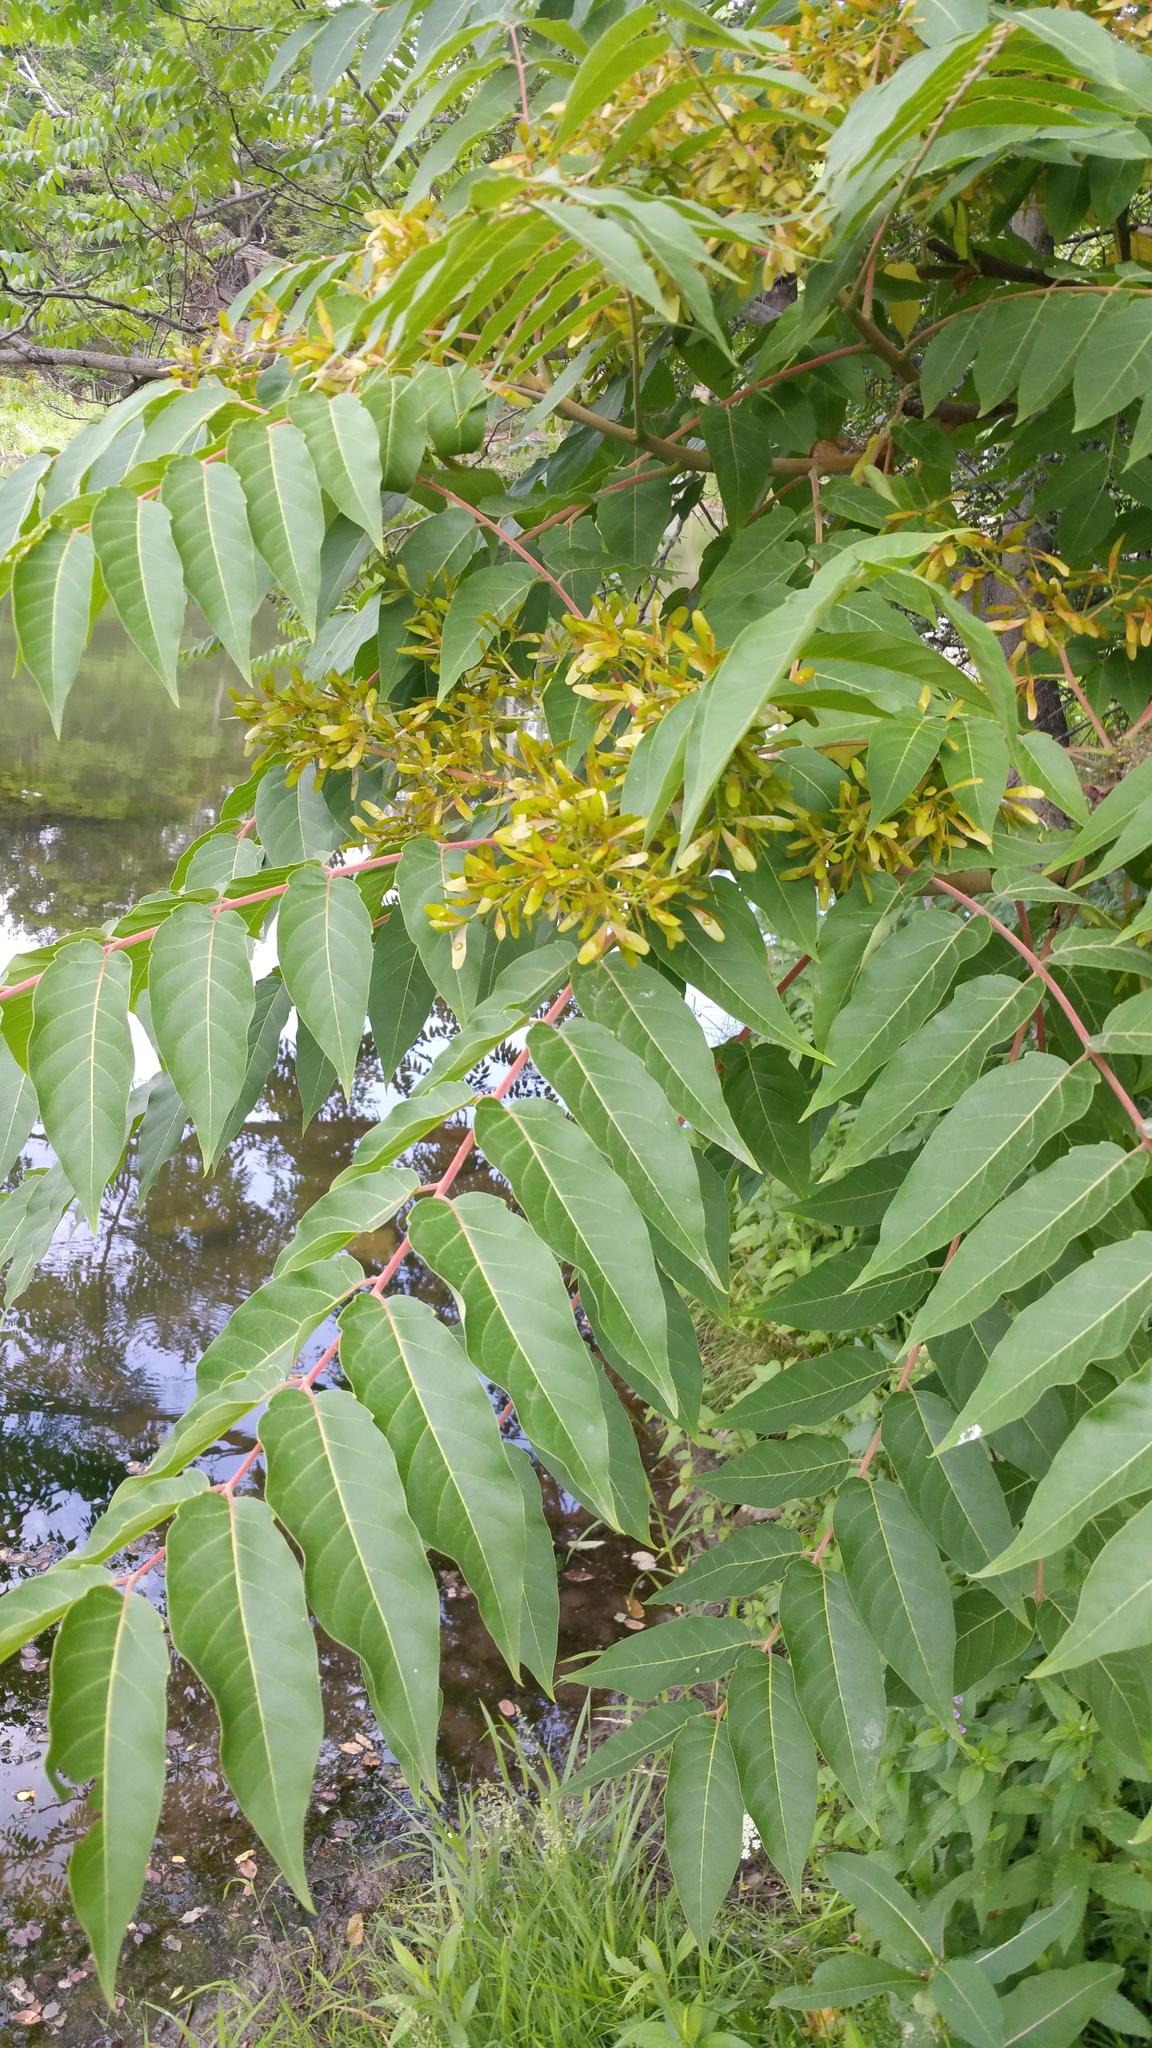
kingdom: Plantae
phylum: Tracheophyta
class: Magnoliopsida
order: Sapindales
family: Simaroubaceae
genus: Ailanthus
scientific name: Ailanthus altissima
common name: Tree-of-heaven
